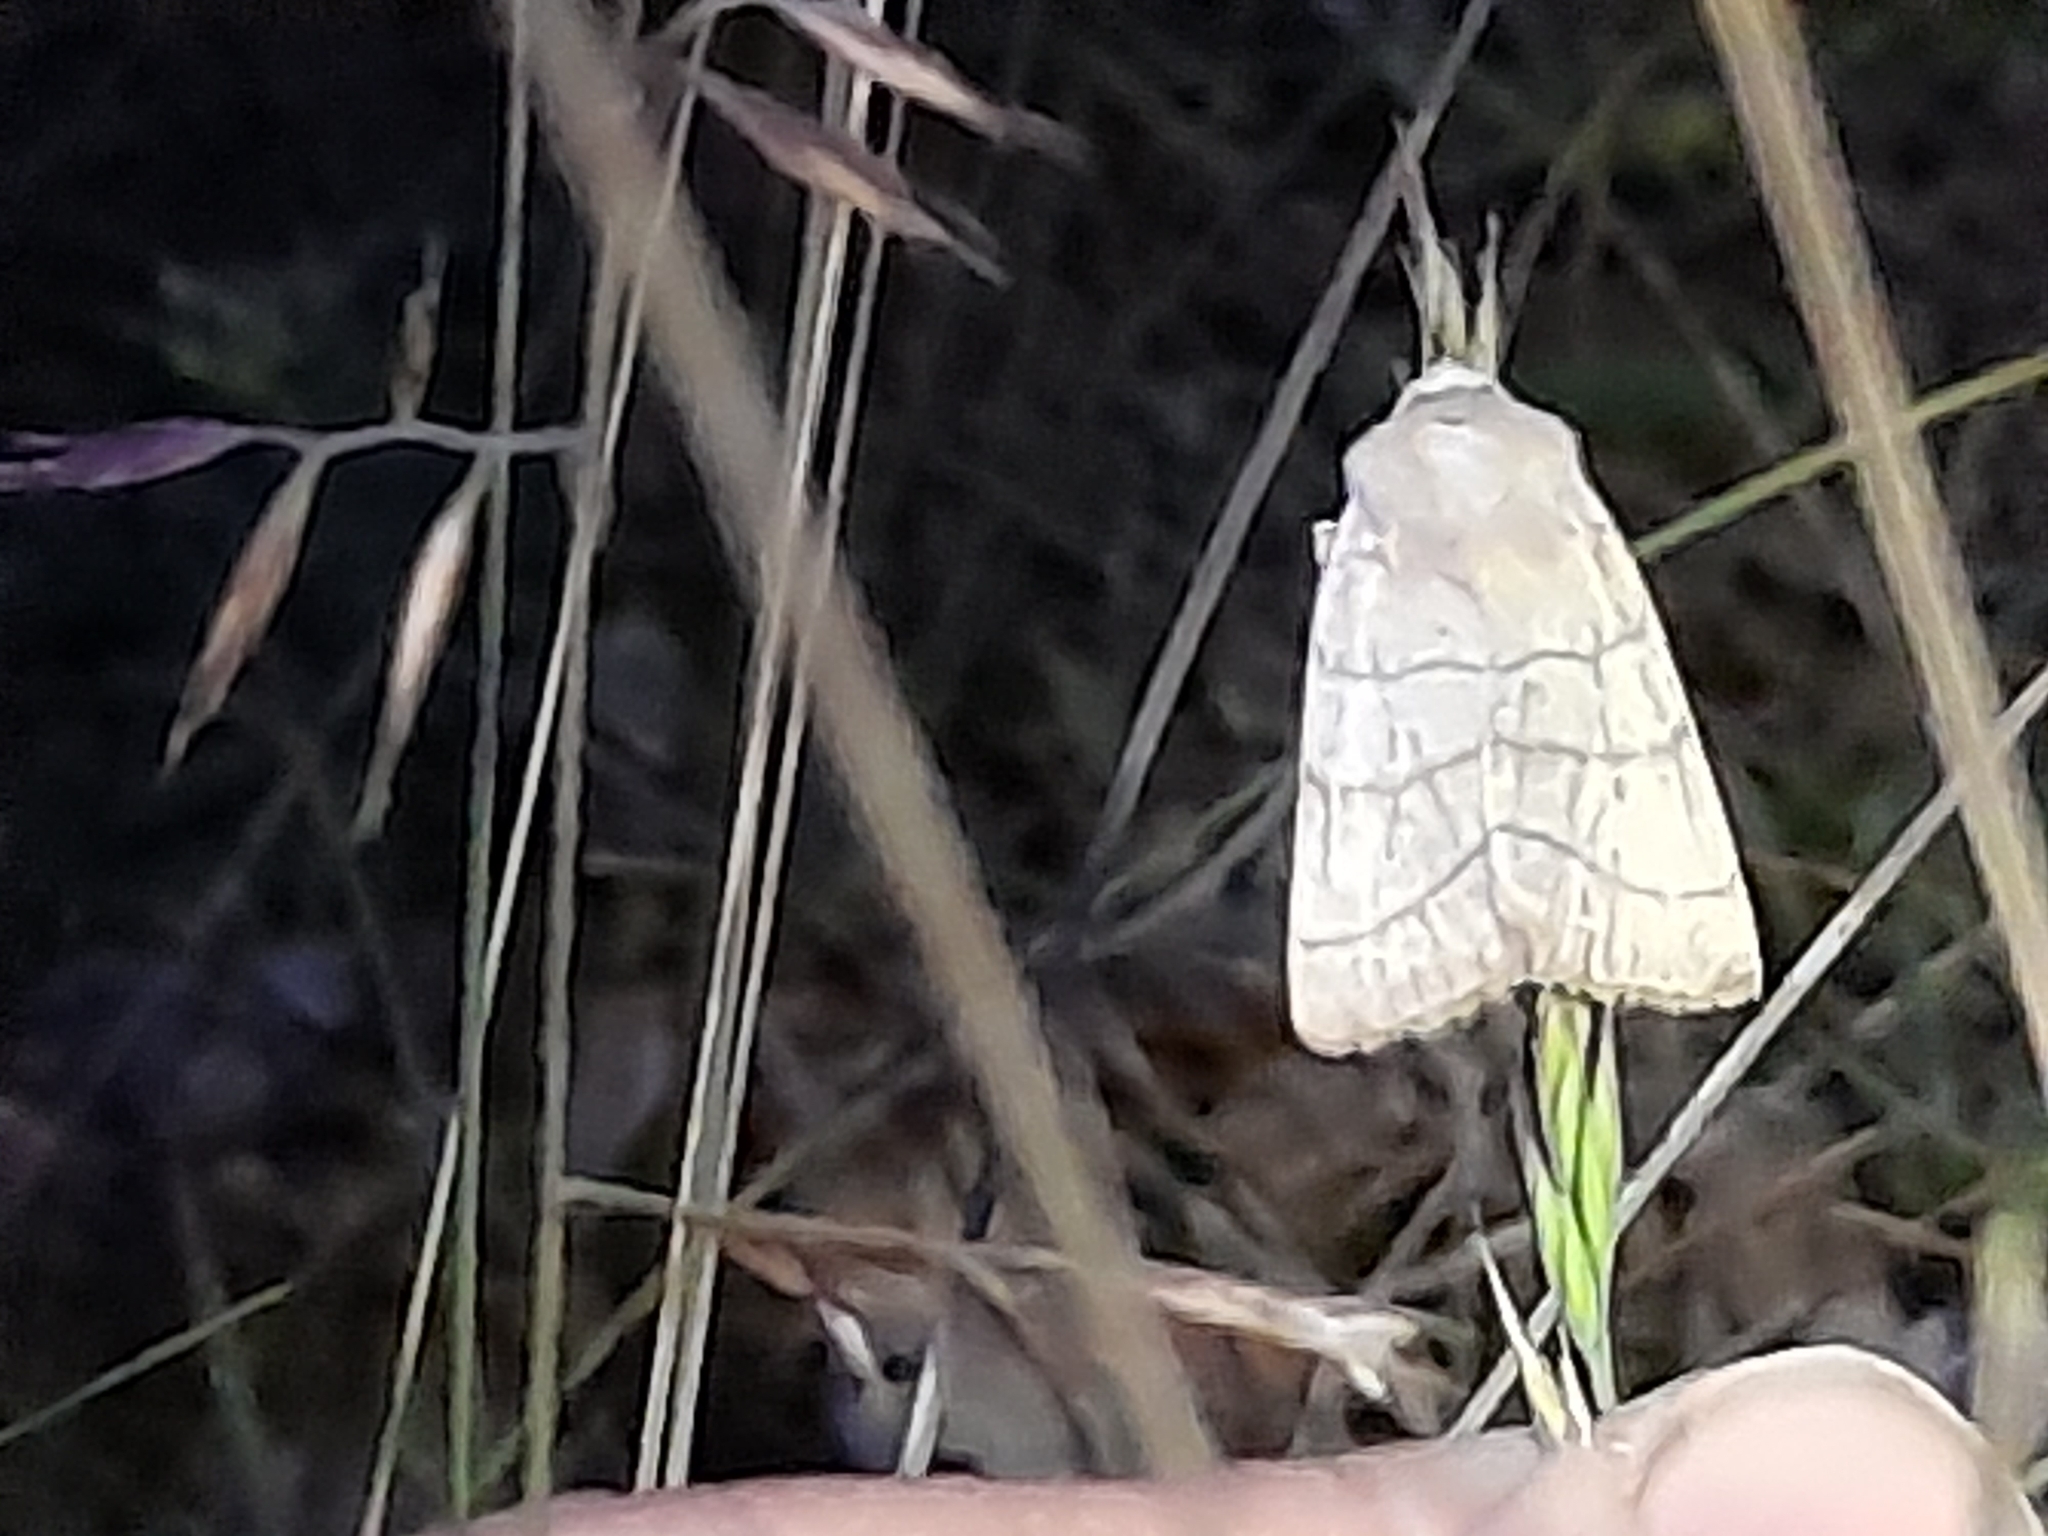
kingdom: Animalia
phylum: Arthropoda
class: Insecta
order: Lepidoptera
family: Noctuidae
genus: Charanyca
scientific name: Charanyca trigrammica
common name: Treble lines
